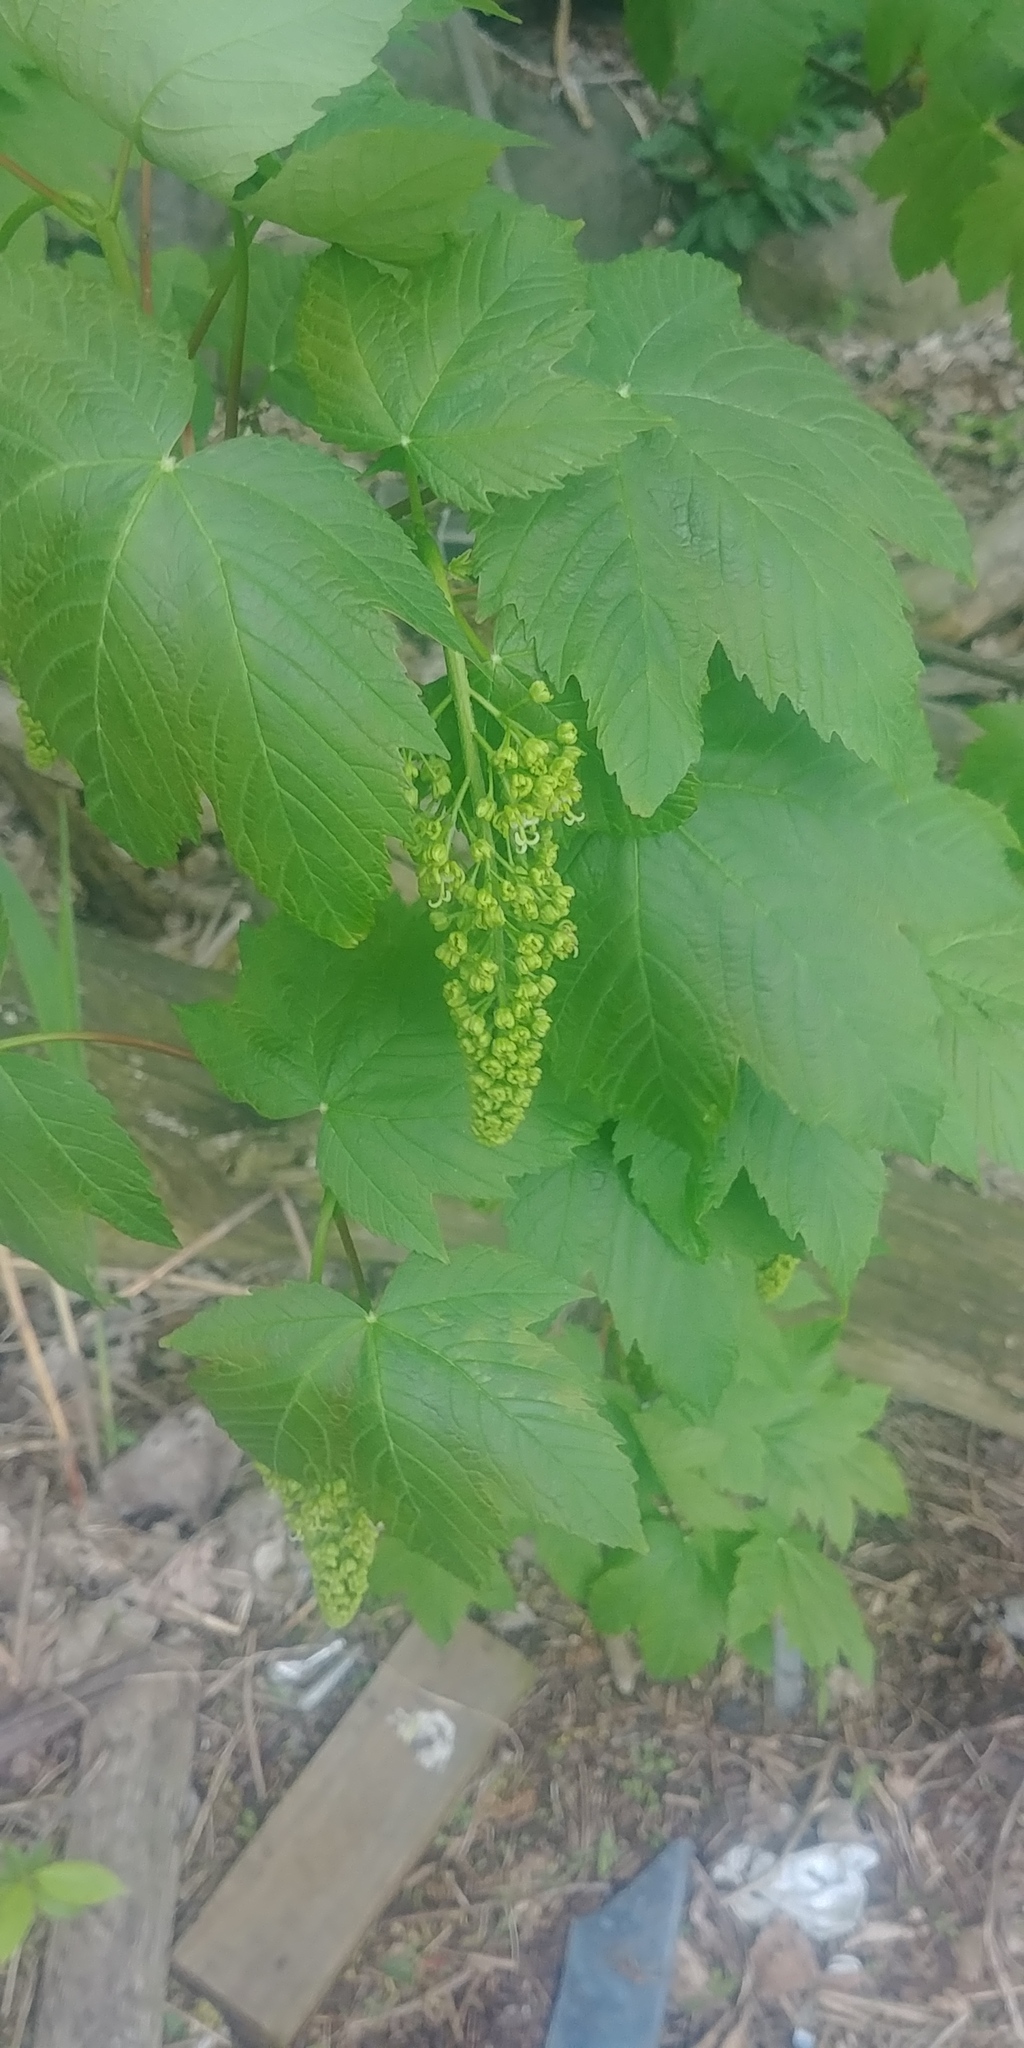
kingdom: Plantae
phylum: Tracheophyta
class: Magnoliopsida
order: Sapindales
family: Sapindaceae
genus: Acer
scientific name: Acer pseudoplatanus
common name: Sycamore
